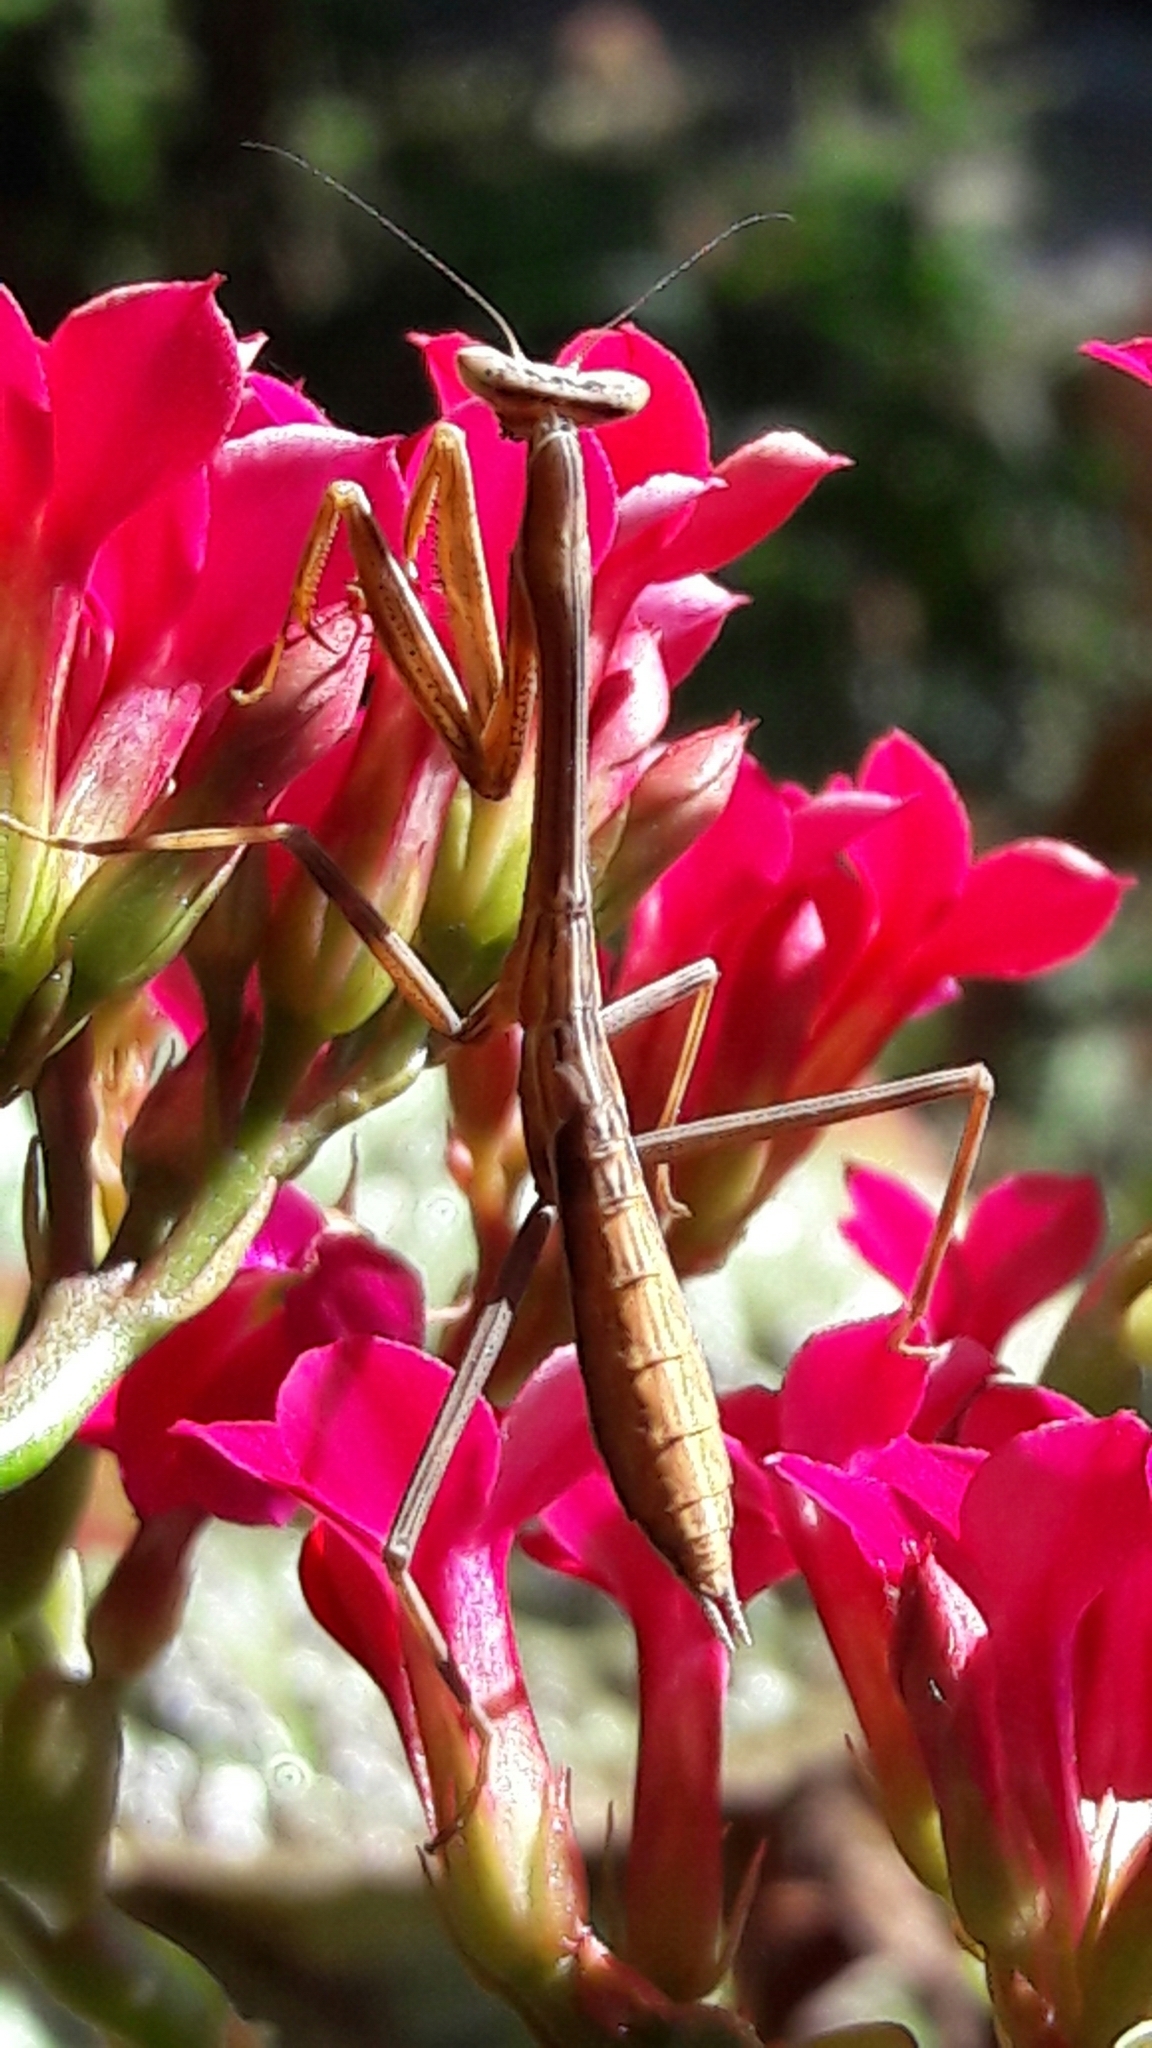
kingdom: Animalia
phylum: Arthropoda
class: Insecta
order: Mantodea
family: Mantidae
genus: Oxyopsis
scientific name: Oxyopsis
